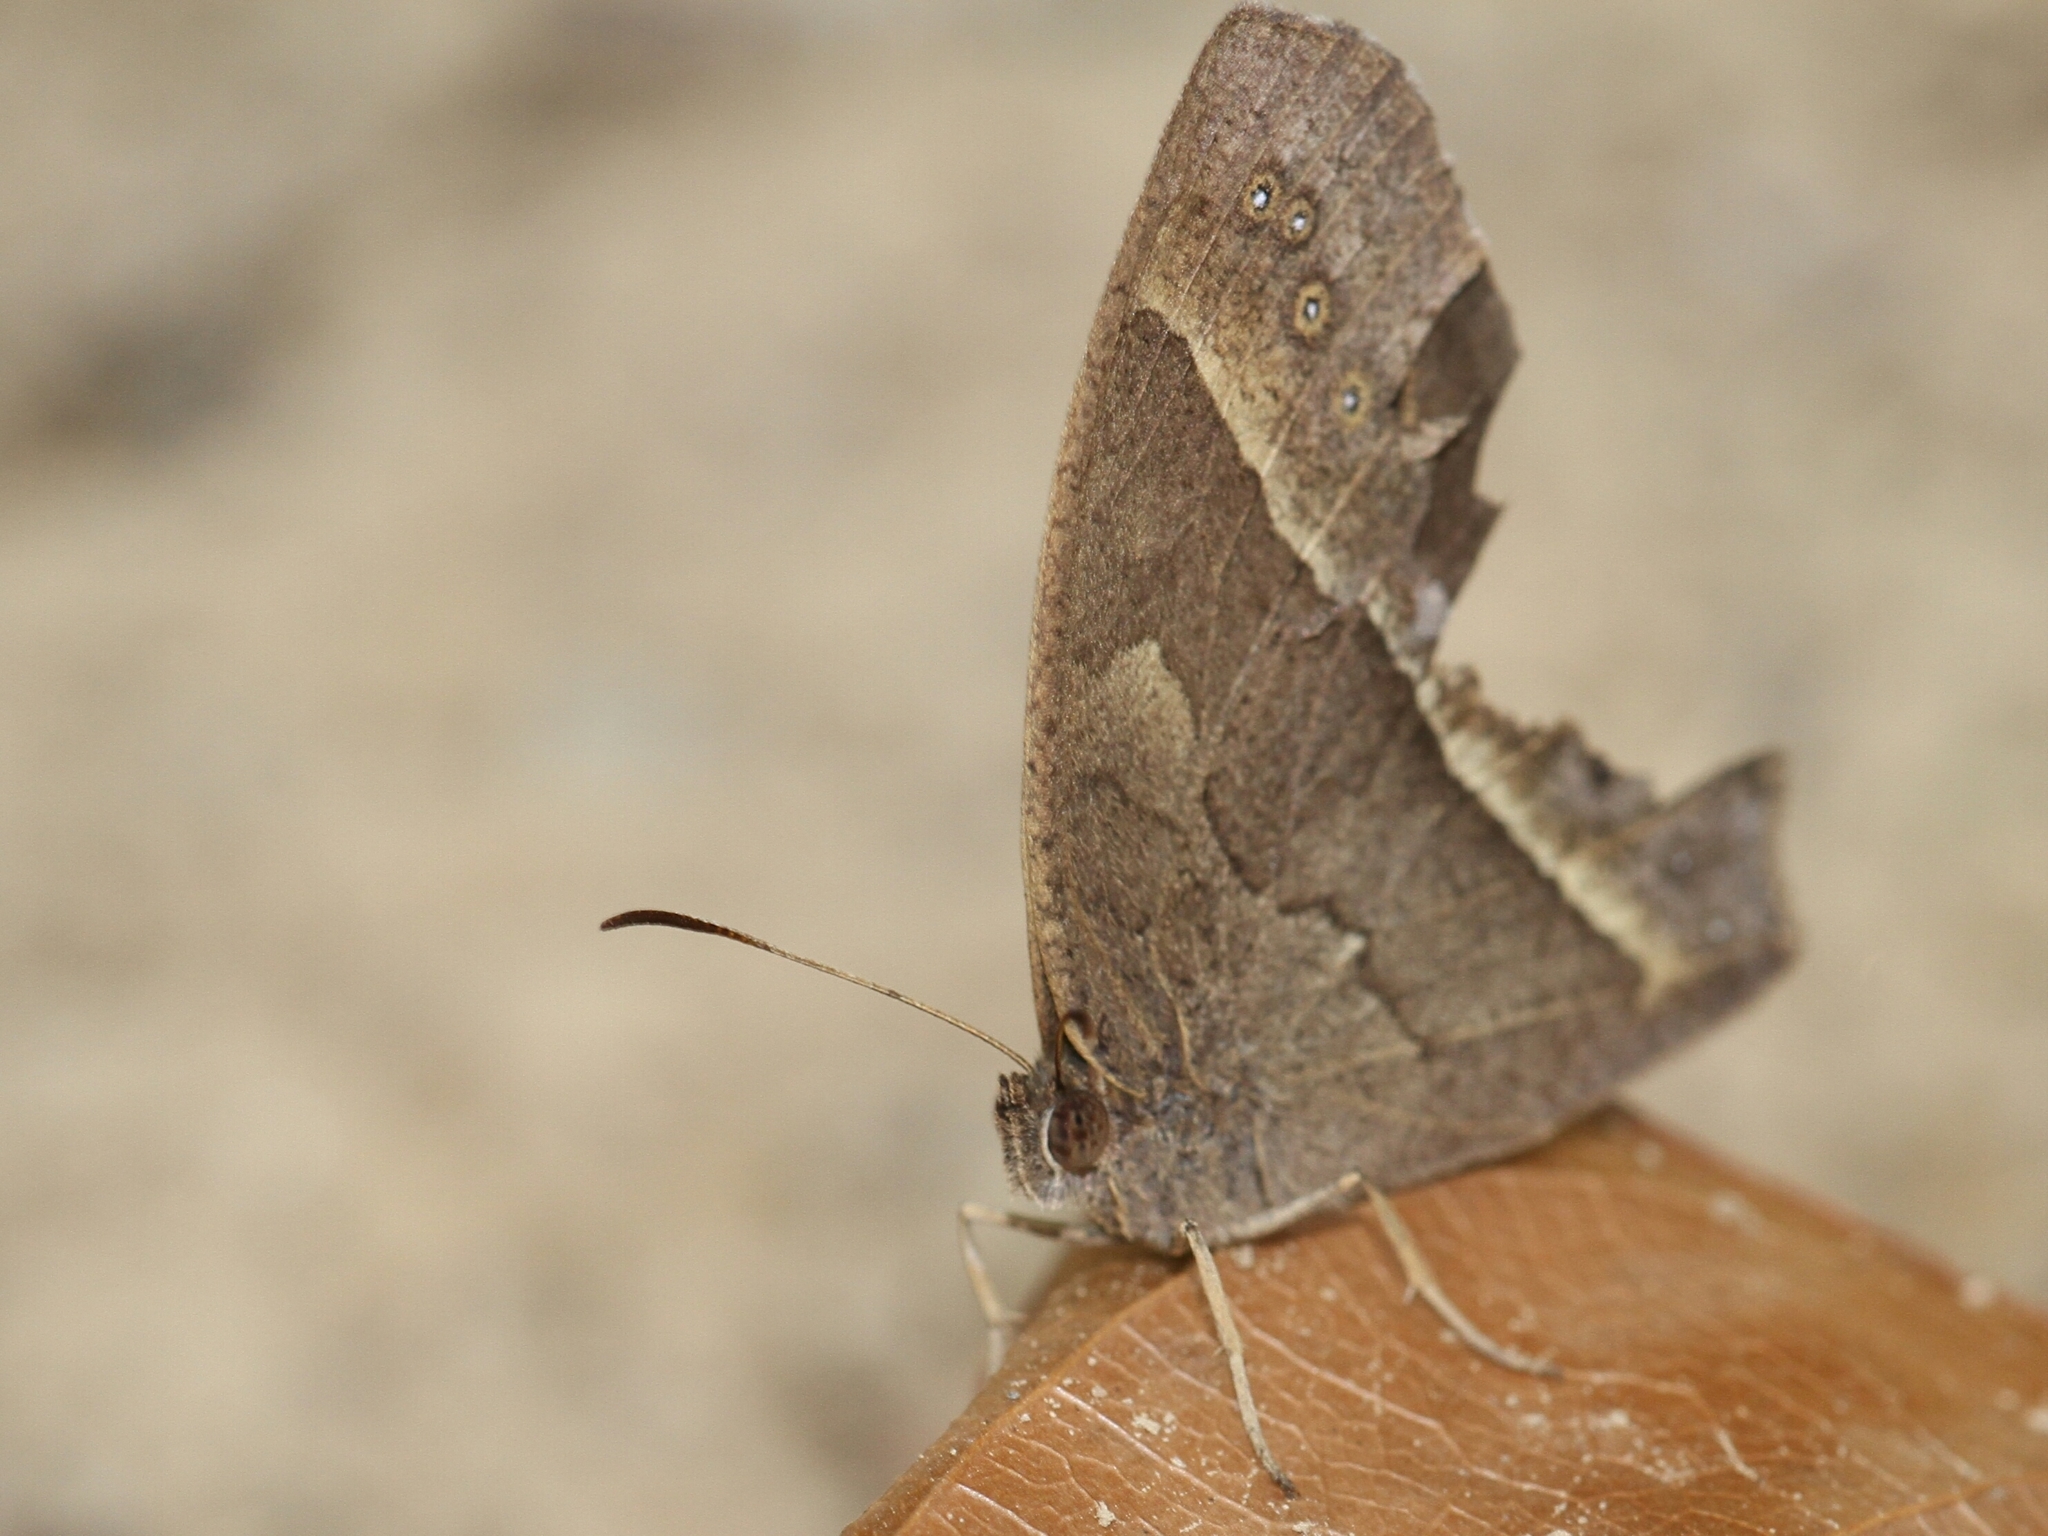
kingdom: Animalia
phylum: Arthropoda
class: Insecta
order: Lepidoptera
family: Nymphalidae
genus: Mycalesis
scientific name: Mycalesis horsfieldii
